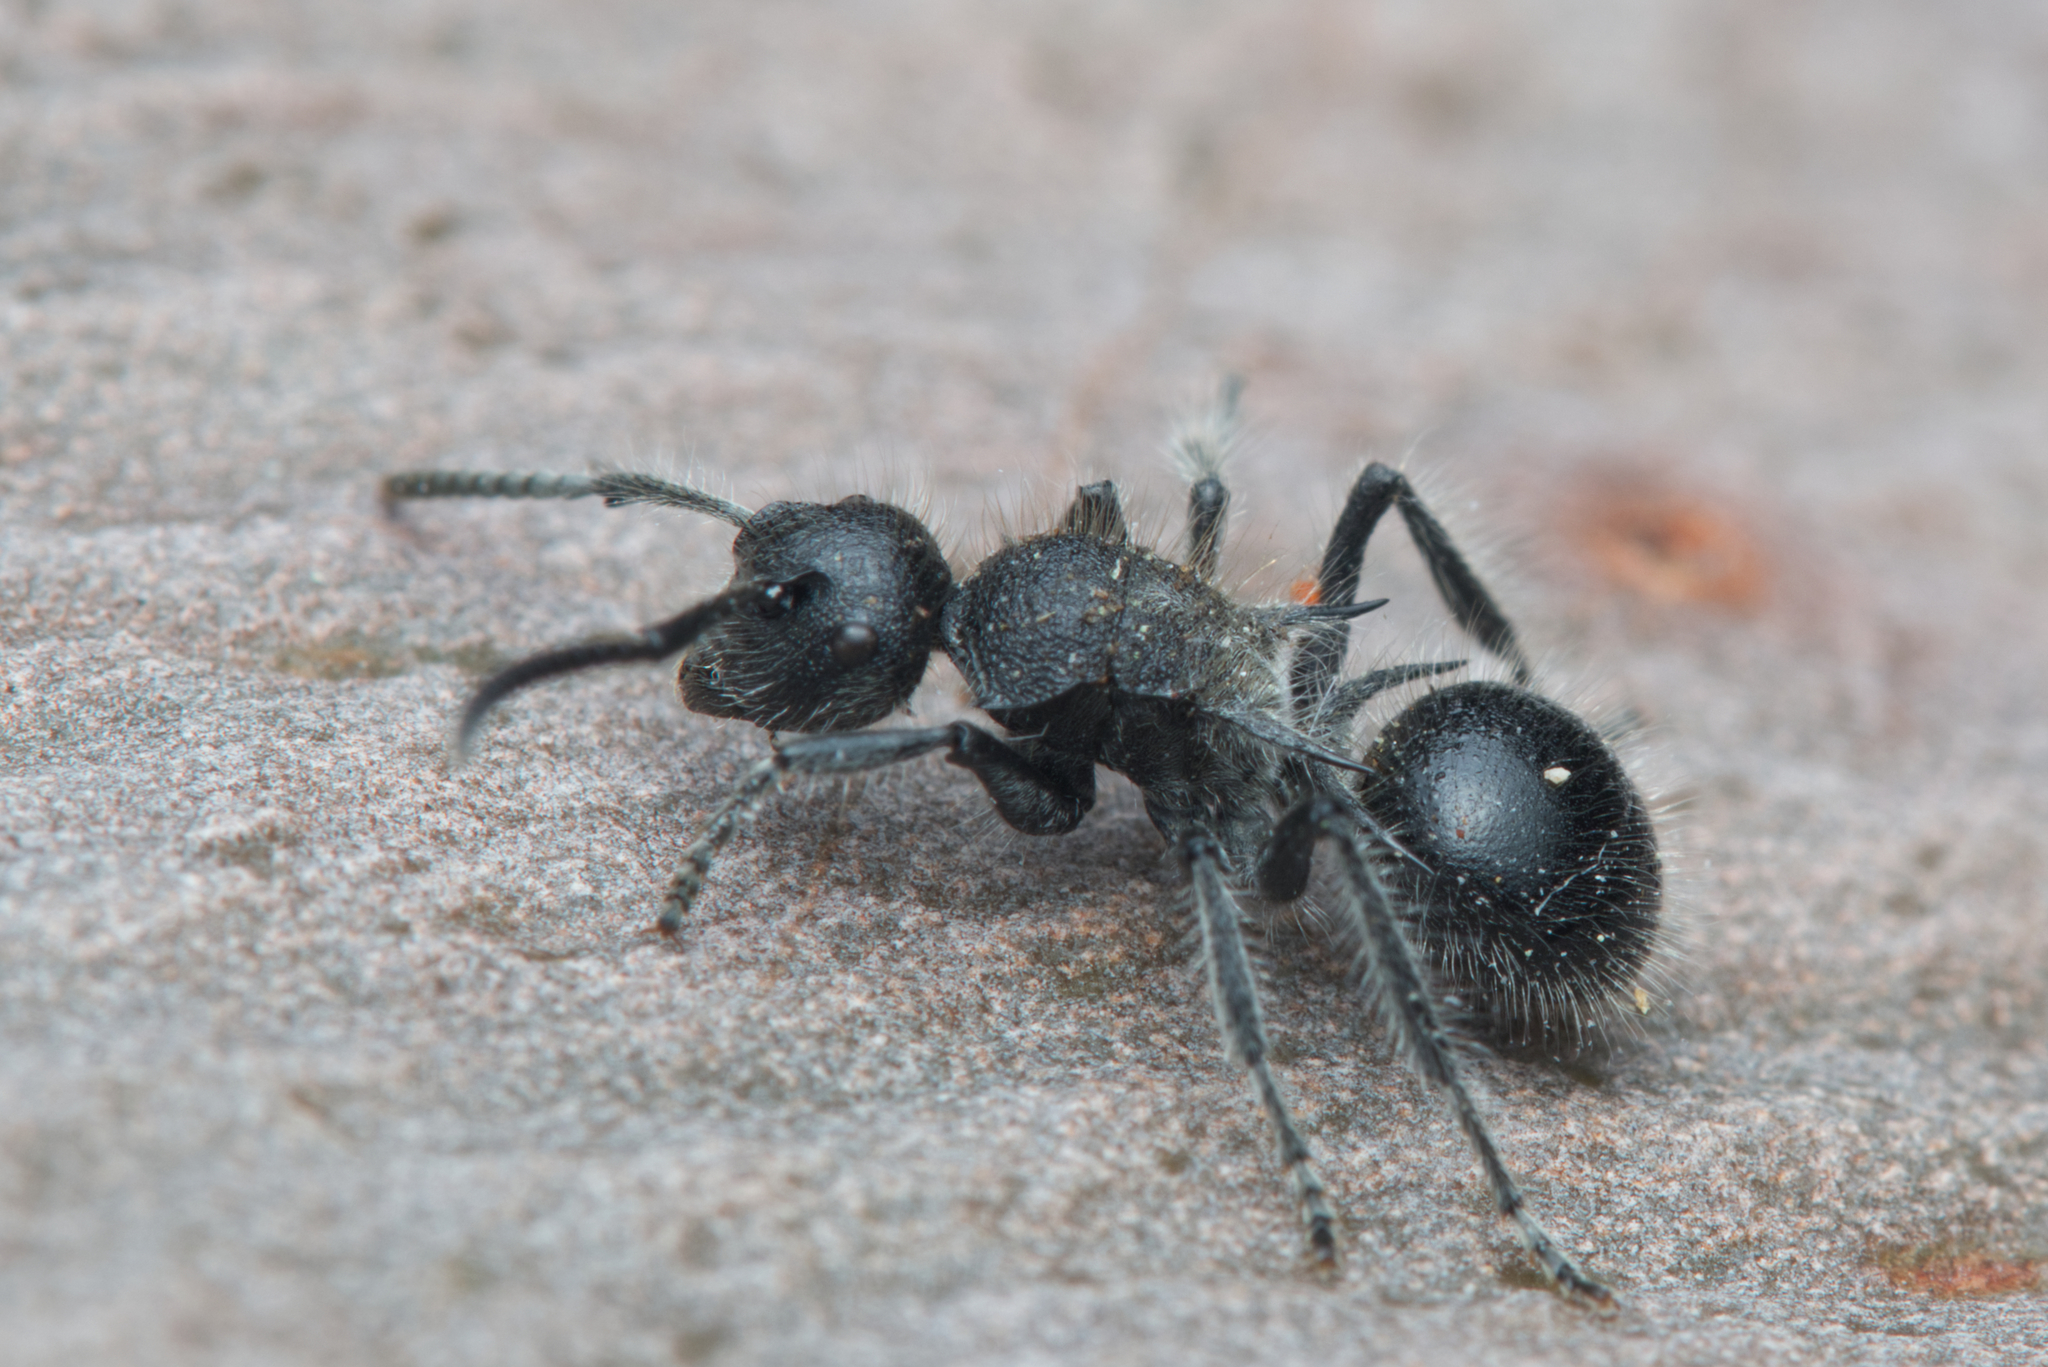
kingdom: Animalia
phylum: Arthropoda
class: Insecta
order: Hymenoptera
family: Formicidae
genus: Polyrhachis
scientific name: Polyrhachis punctiventris
